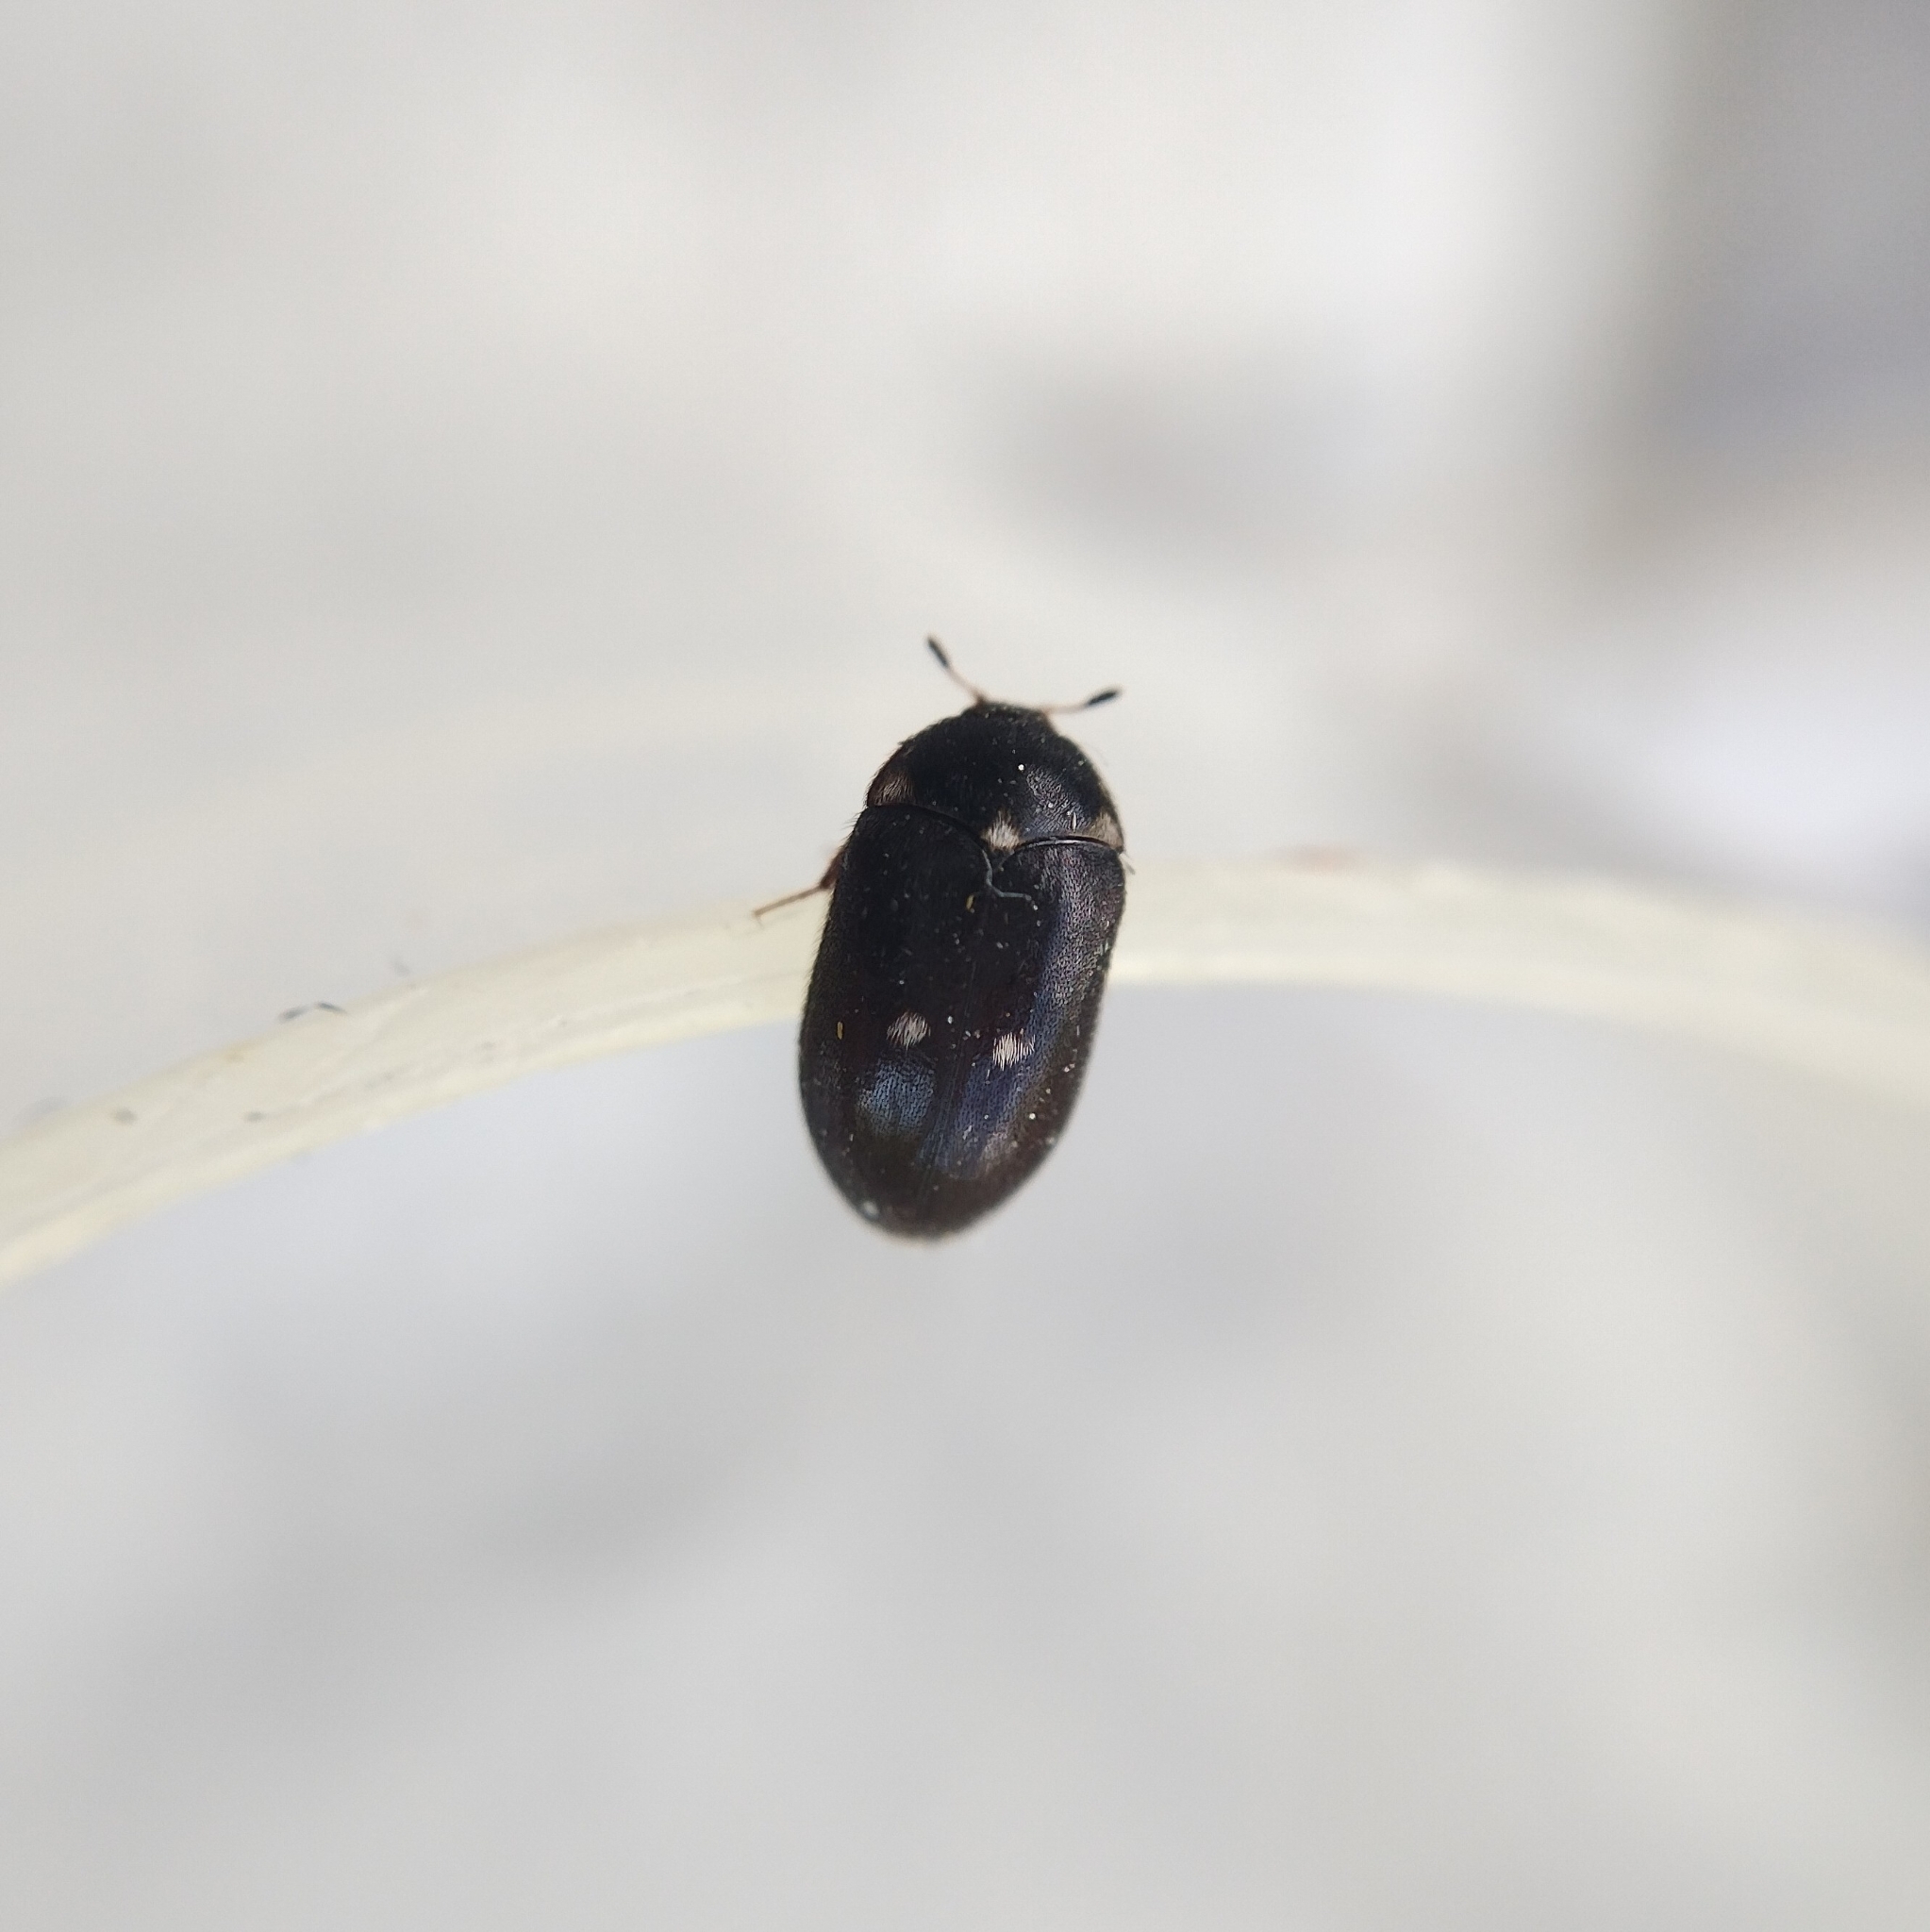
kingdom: Animalia
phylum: Arthropoda
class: Insecta
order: Coleoptera
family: Dermestidae
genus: Attagenus
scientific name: Attagenus pellio
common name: Two-spotted carpet beetle
